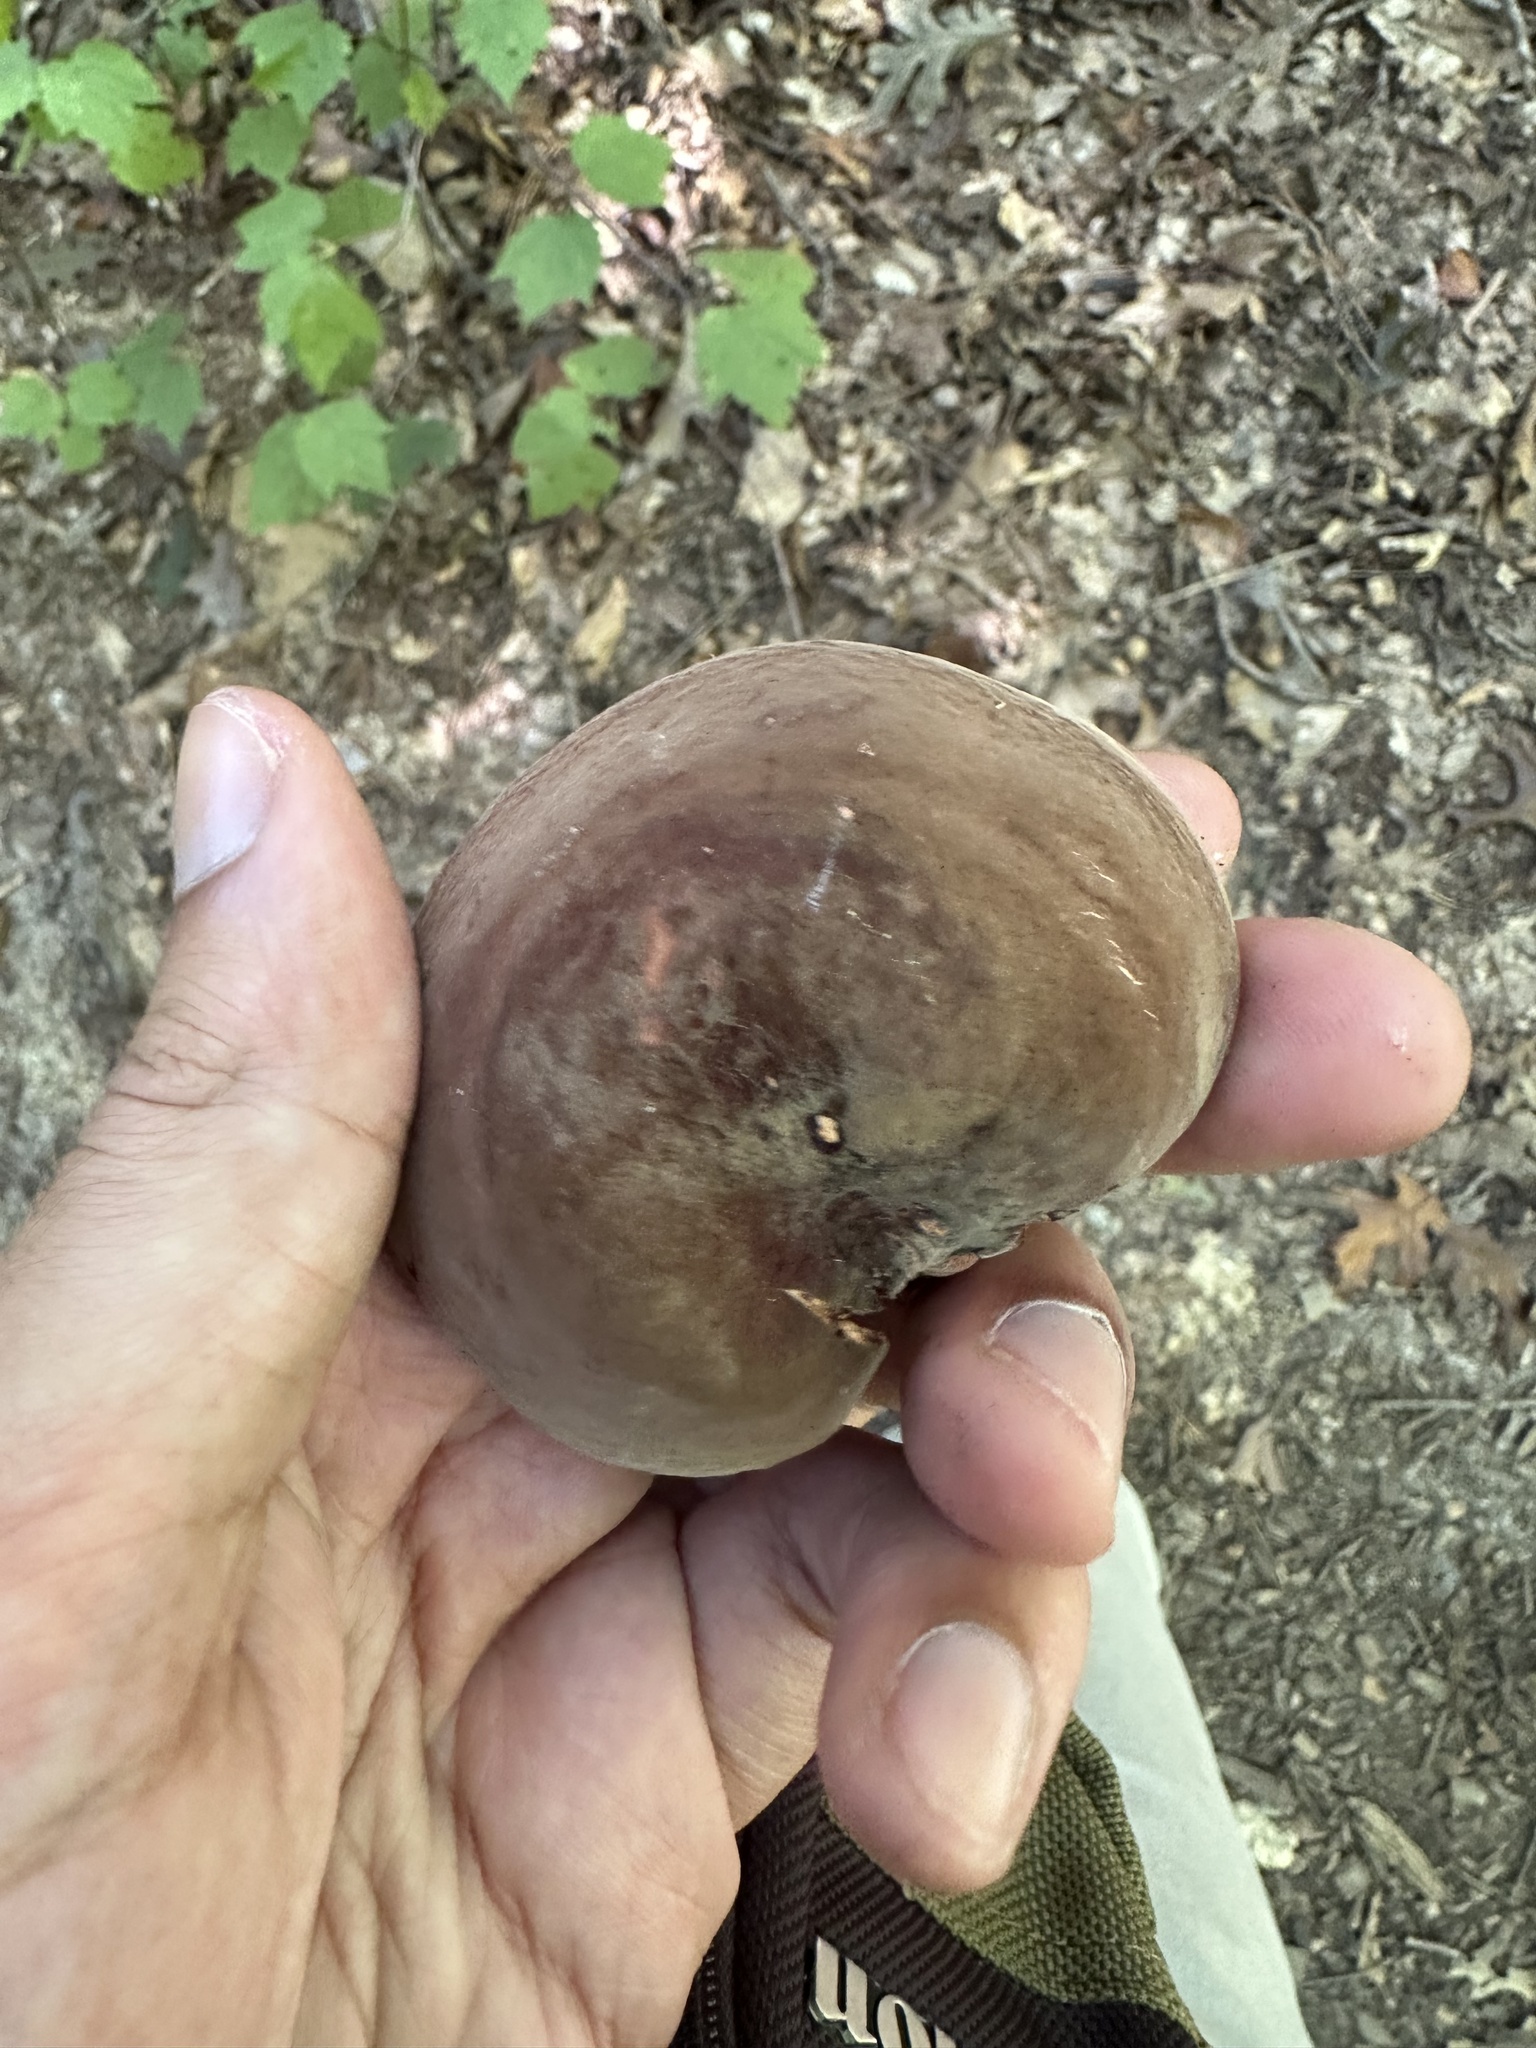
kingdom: Fungi
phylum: Basidiomycota
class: Agaricomycetes
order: Russulales
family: Russulaceae
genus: Lactarius
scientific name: Lactarius corrugis
